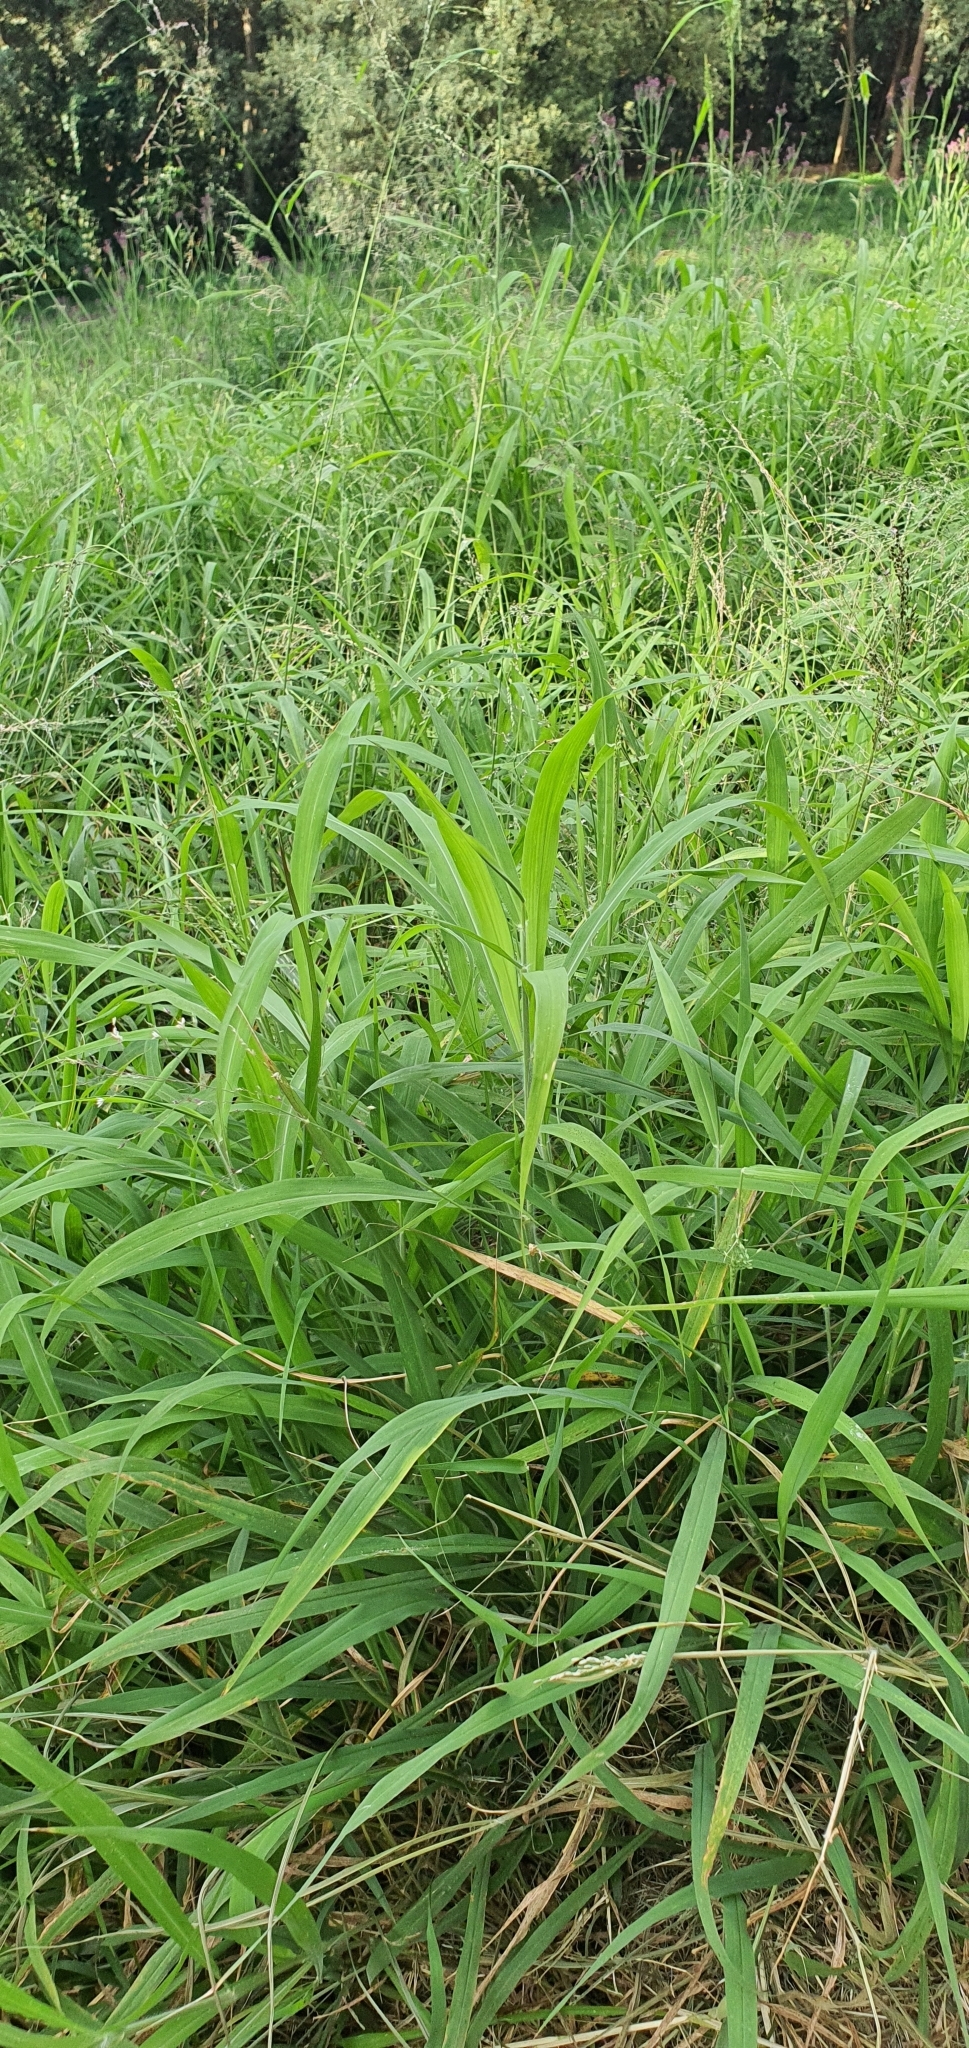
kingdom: Plantae
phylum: Tracheophyta
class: Liliopsida
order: Poales
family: Poaceae
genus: Megathyrsus
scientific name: Megathyrsus maximus
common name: Guineagrass
